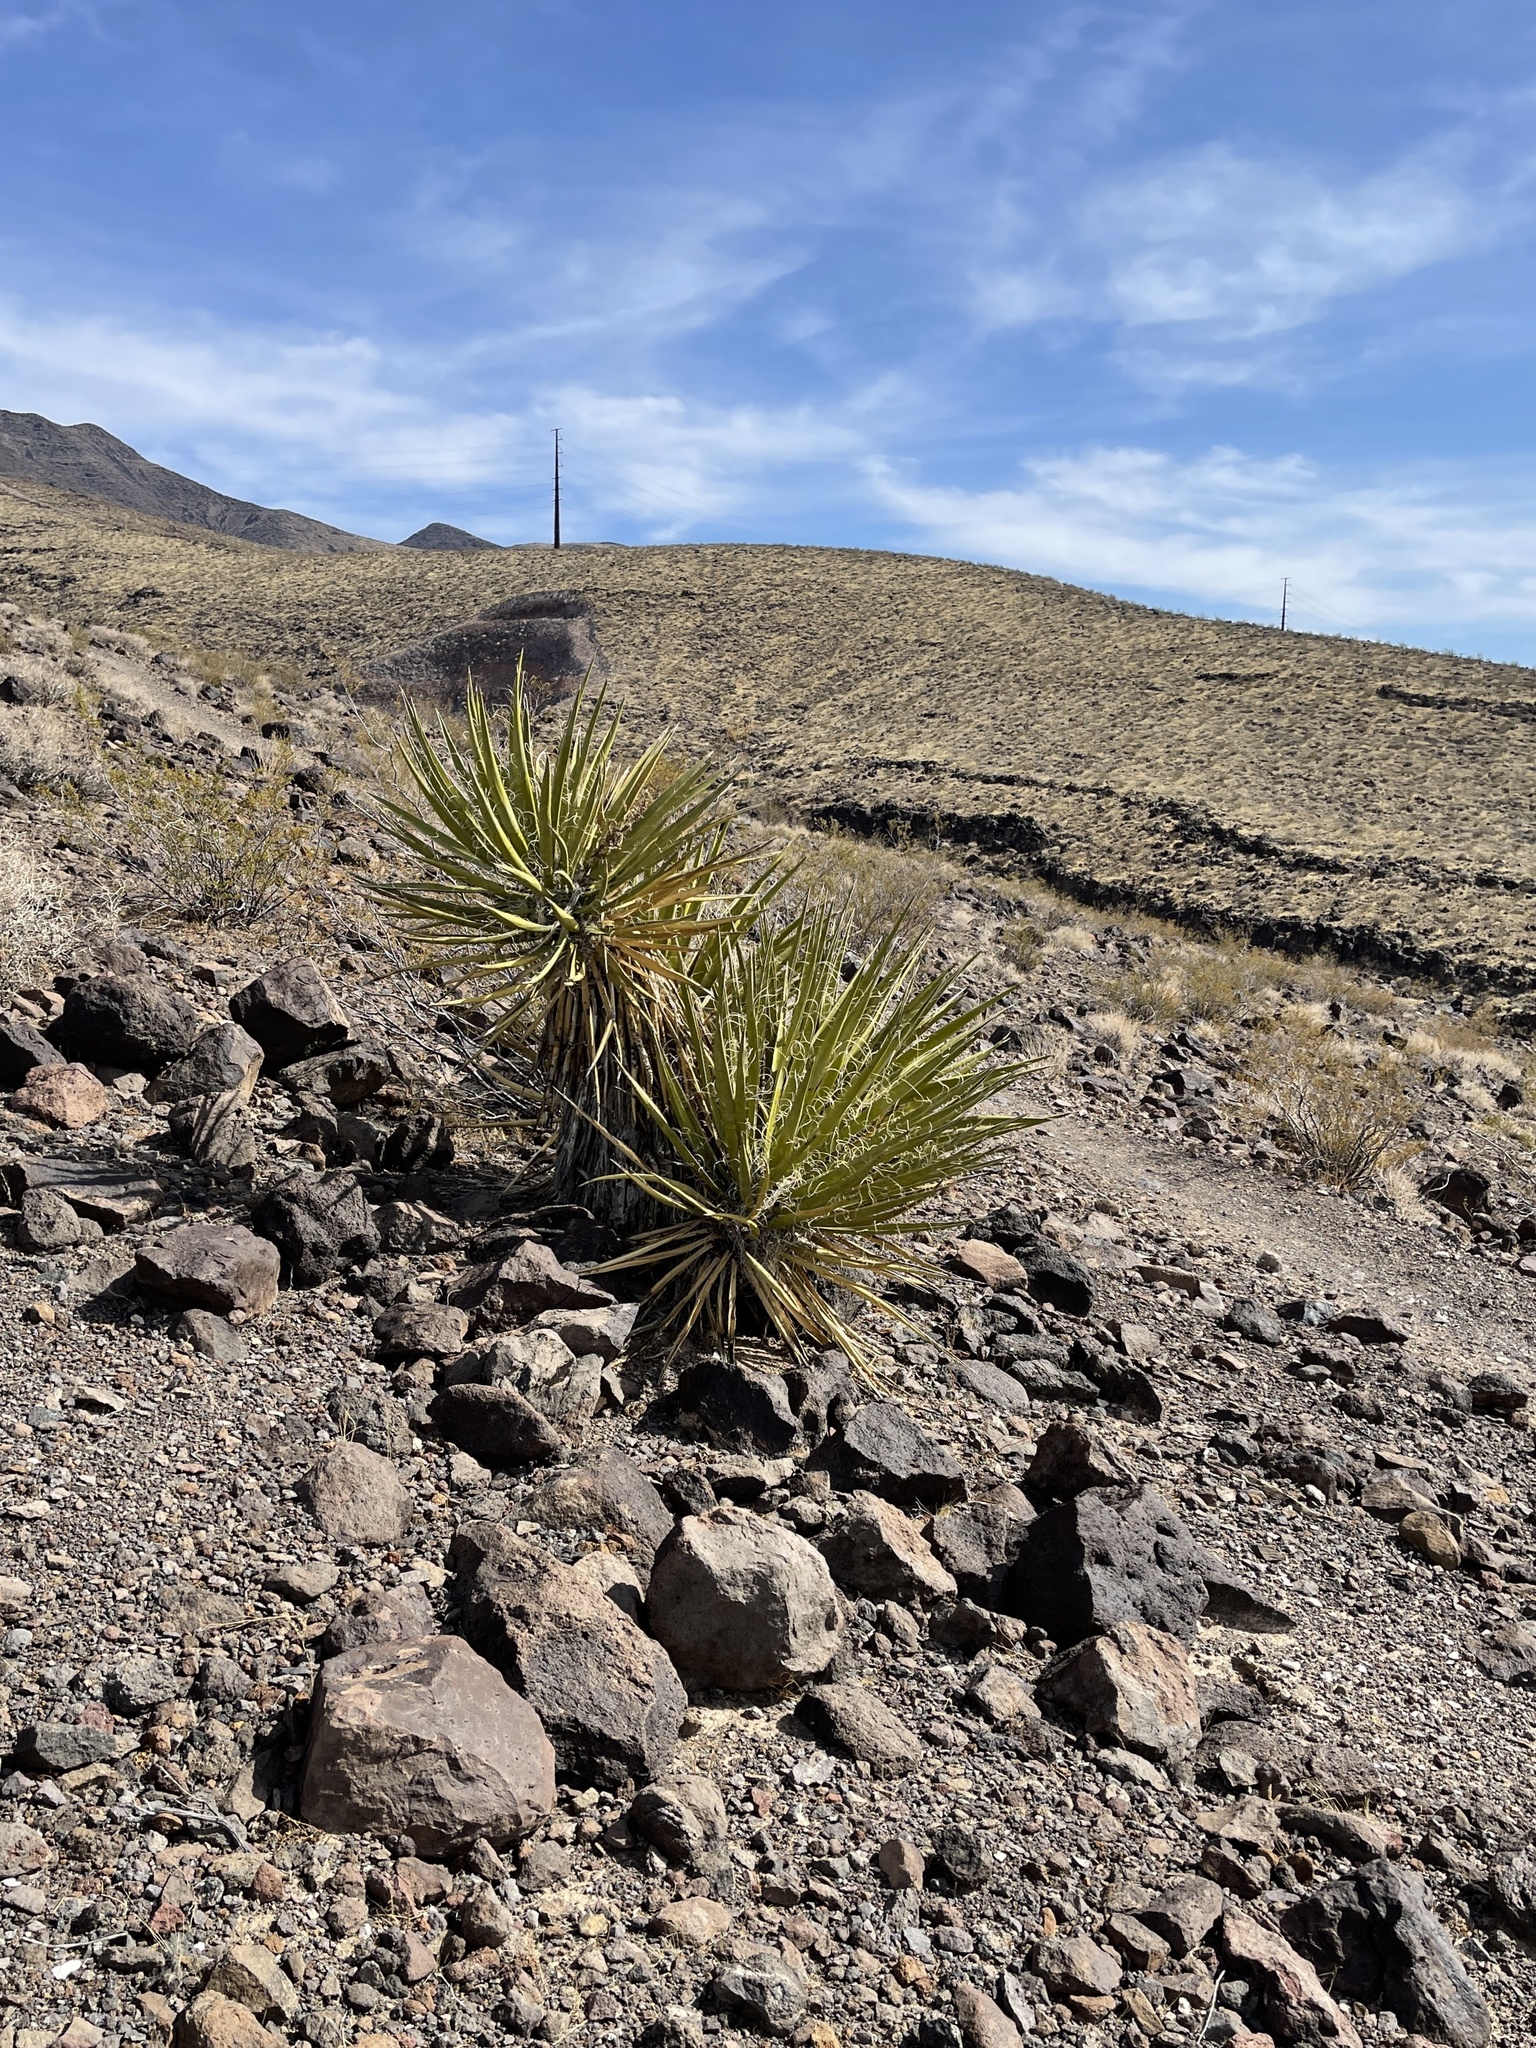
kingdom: Plantae
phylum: Tracheophyta
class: Liliopsida
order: Asparagales
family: Asparagaceae
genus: Yucca
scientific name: Yucca schidigera
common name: Mojave yucca
